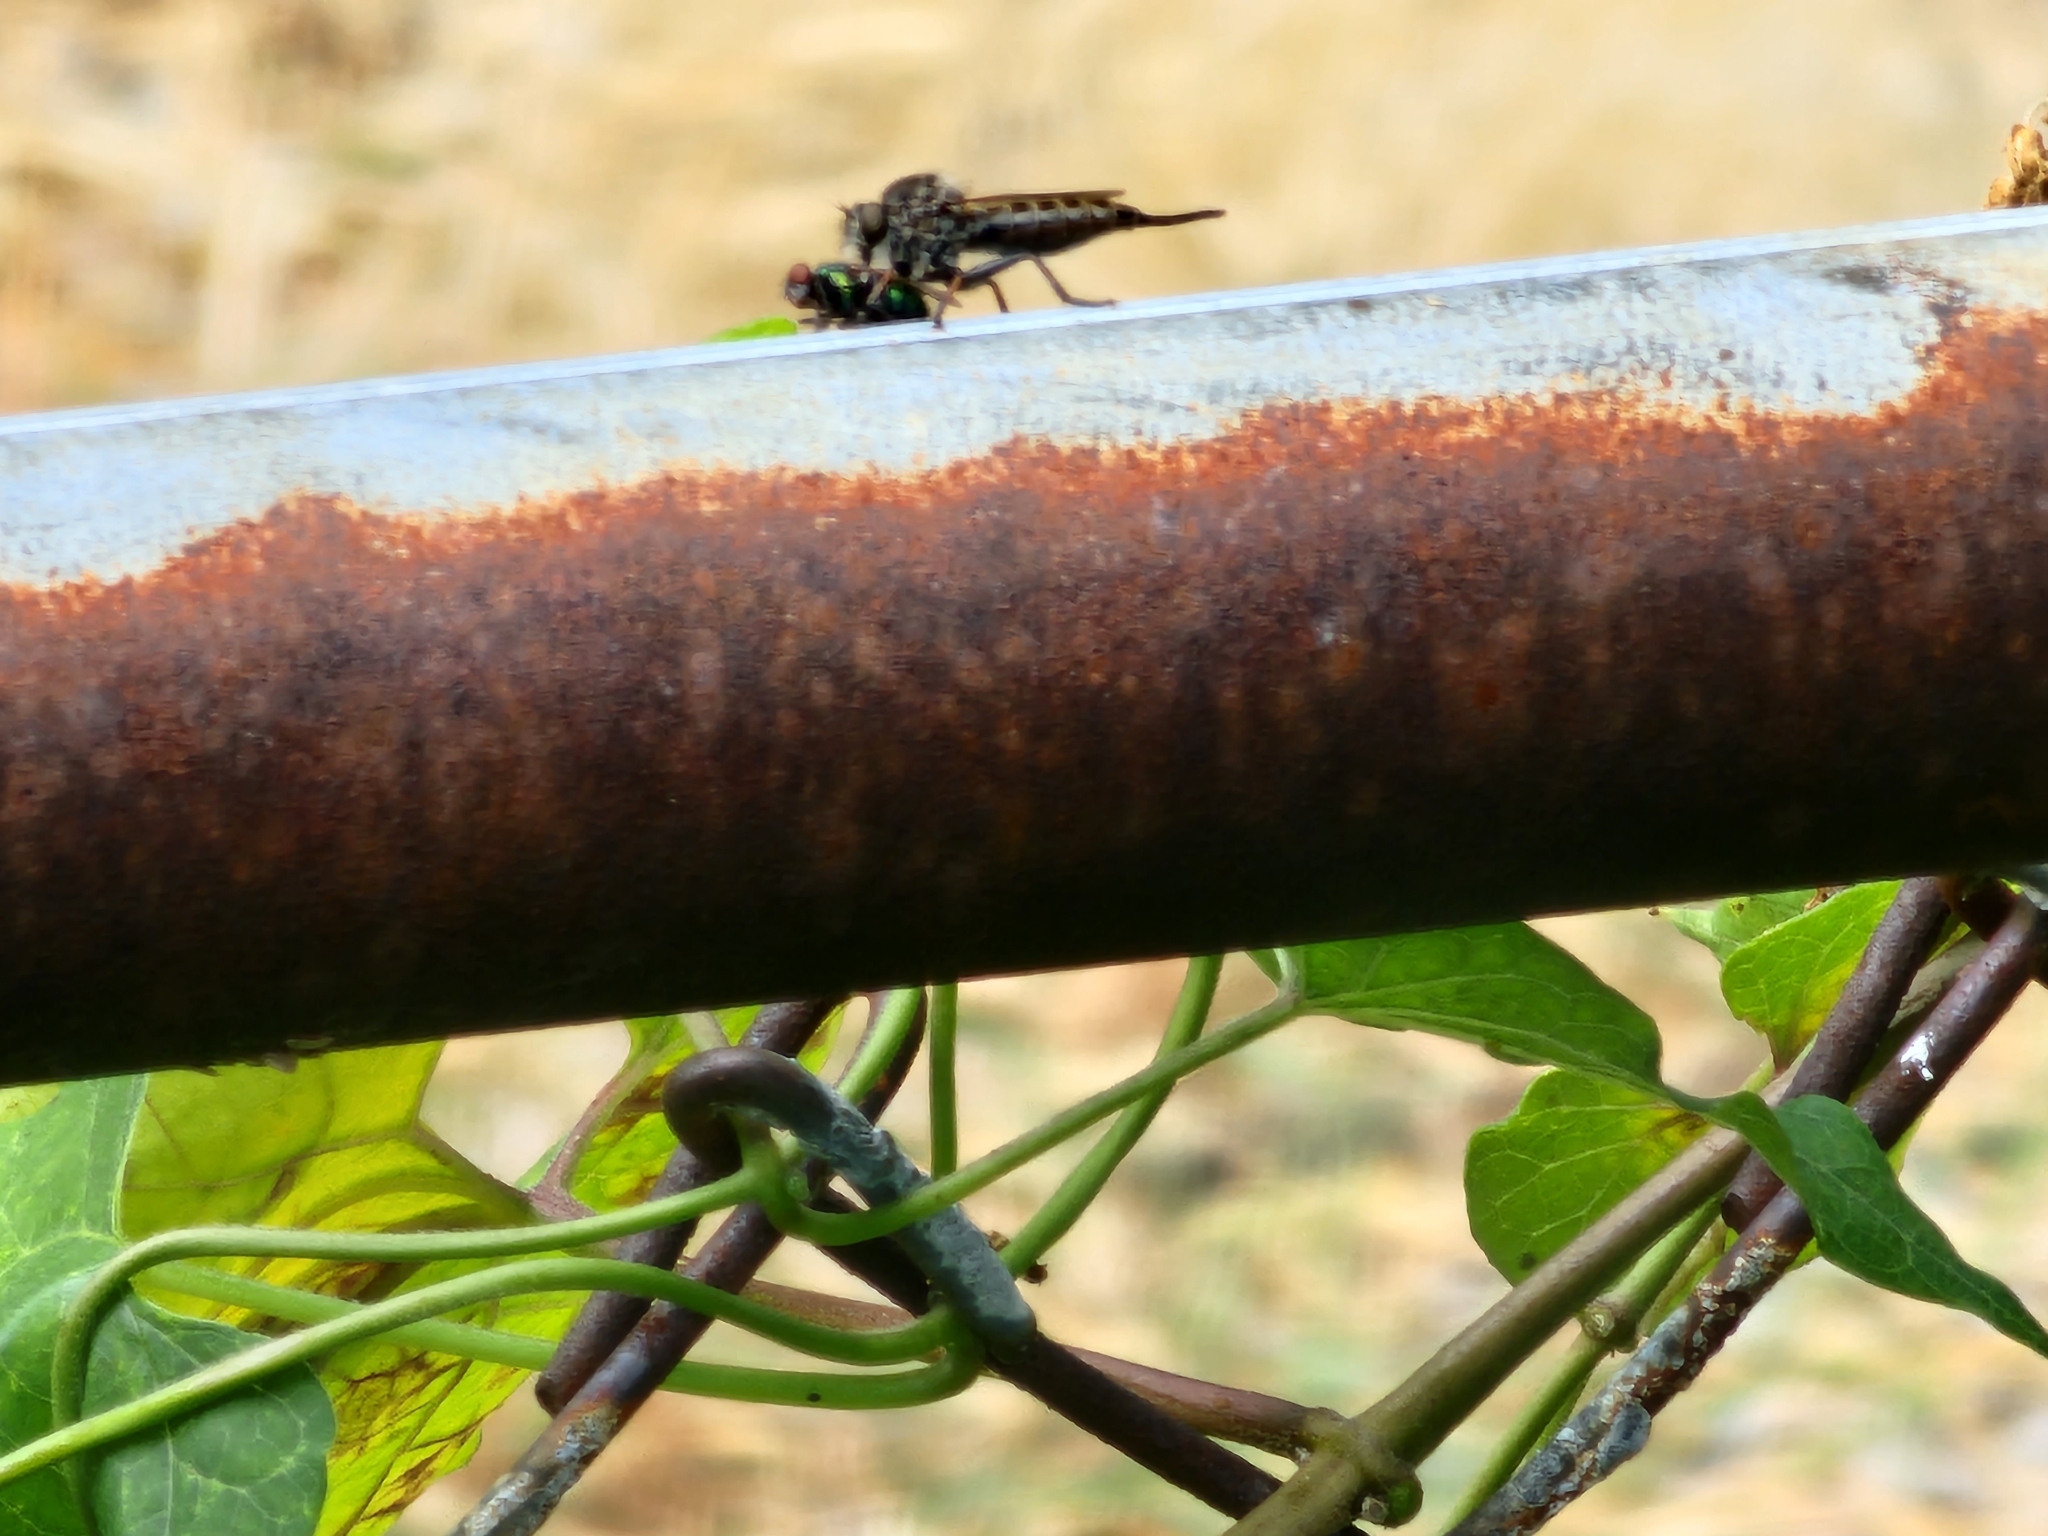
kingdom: Animalia
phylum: Arthropoda
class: Insecta
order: Diptera
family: Asilidae
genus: Efferia
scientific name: Efferia aestuans
